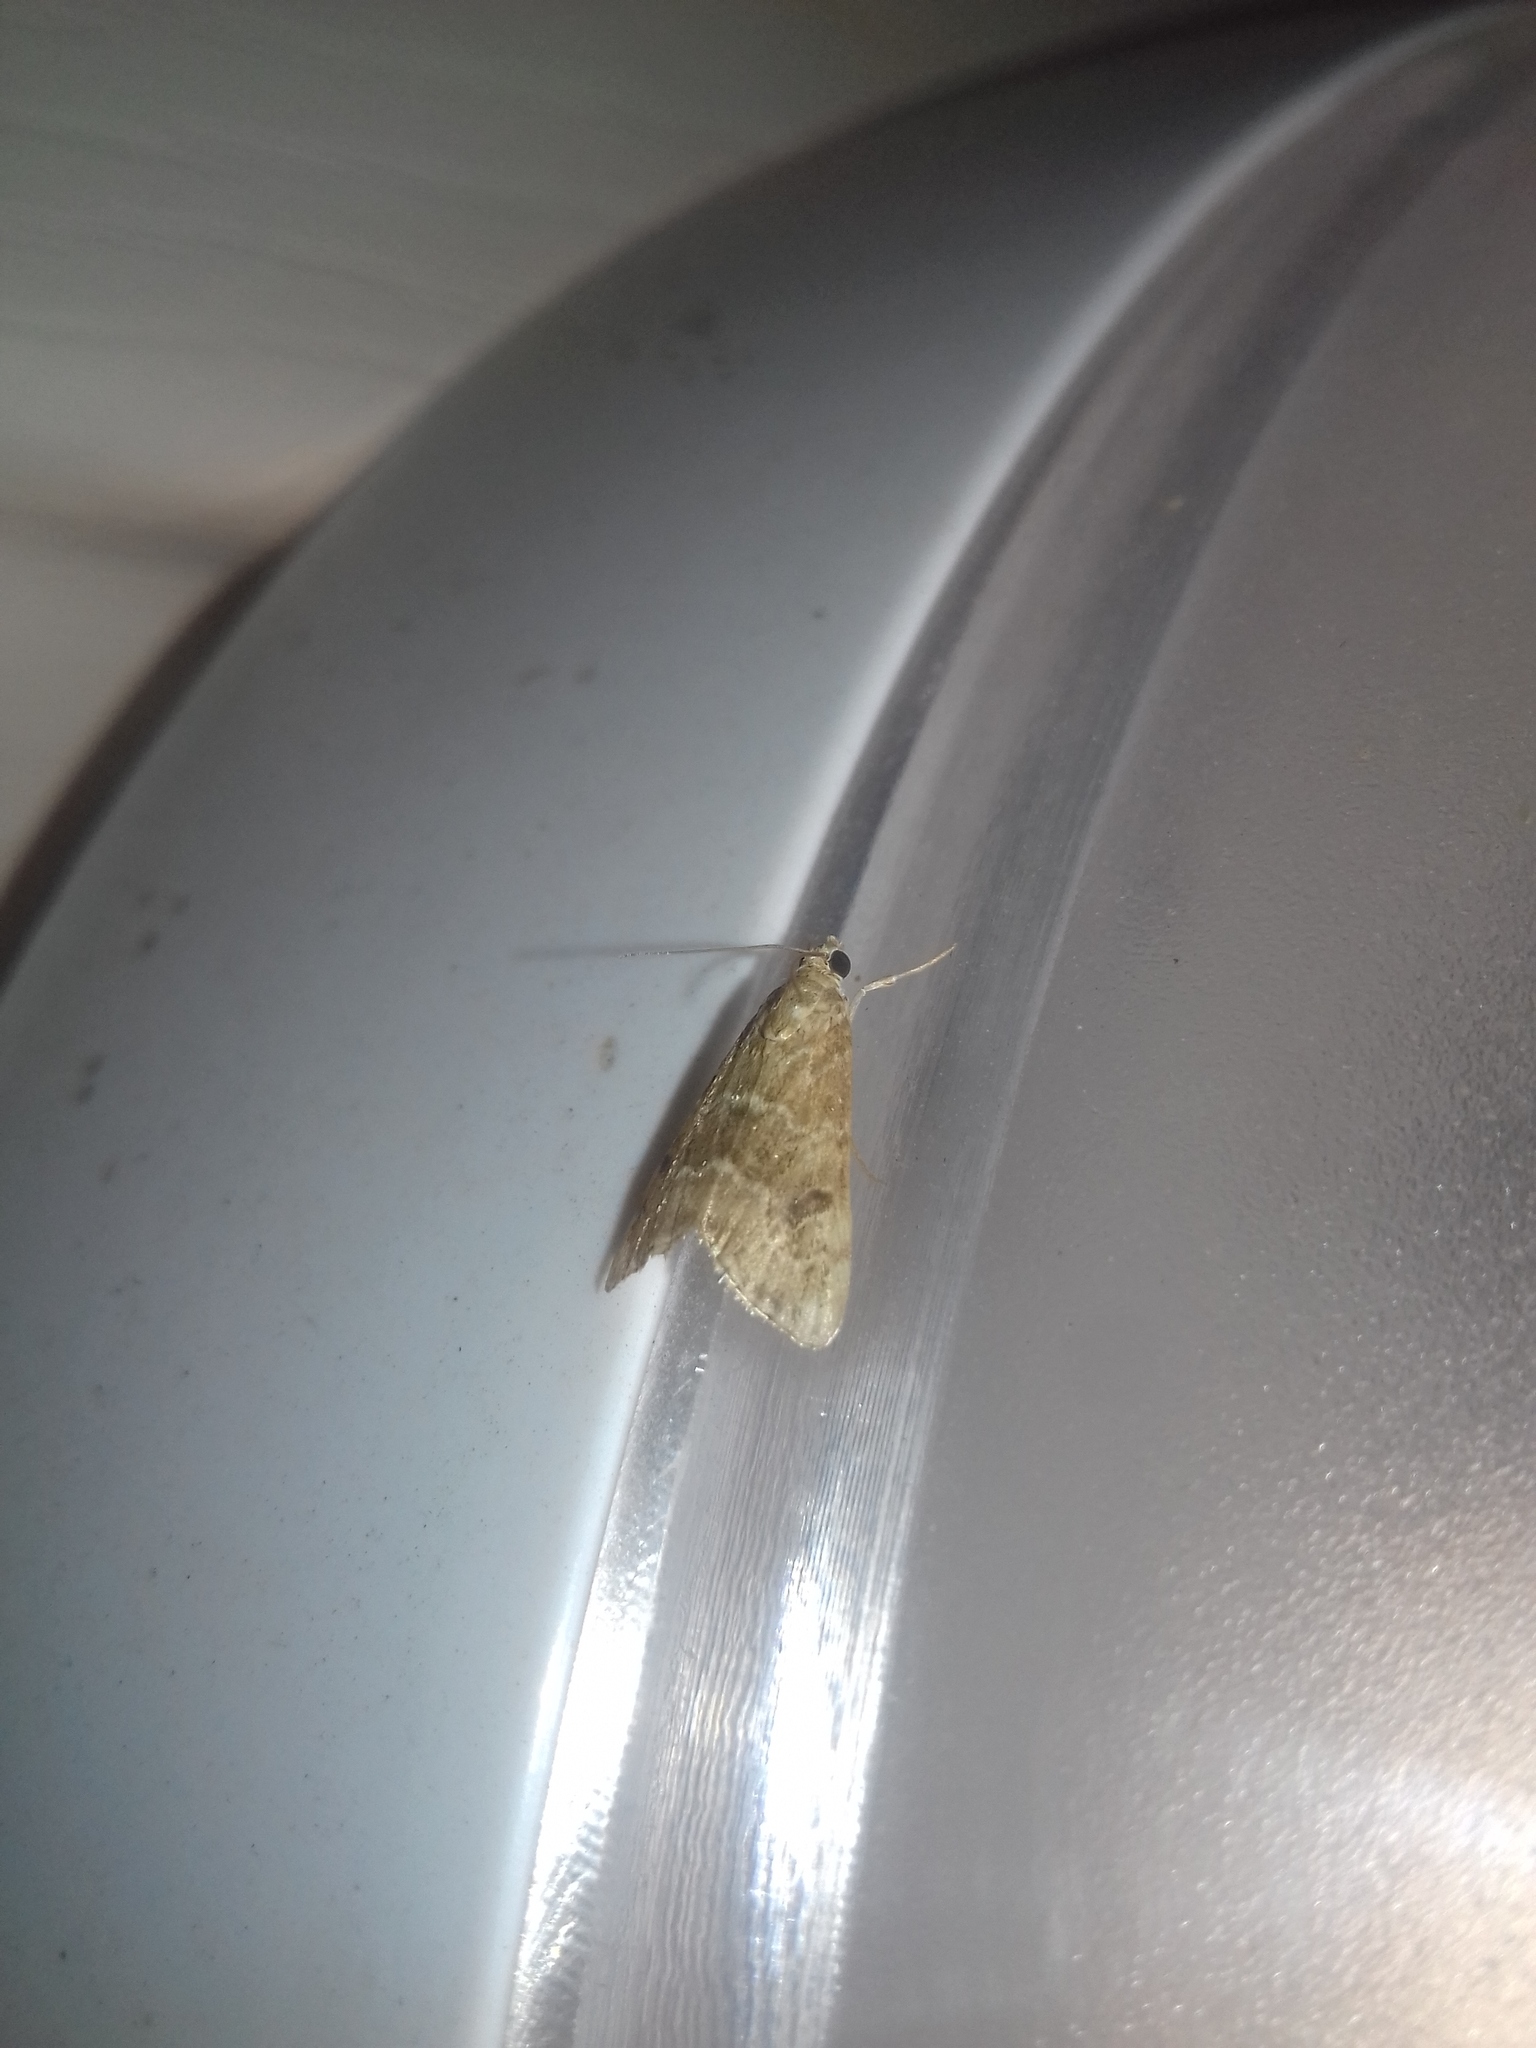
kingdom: Animalia
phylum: Arthropoda
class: Insecta
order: Lepidoptera
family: Crambidae
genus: Hellula
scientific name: Hellula undalis
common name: Cabbage webworm
